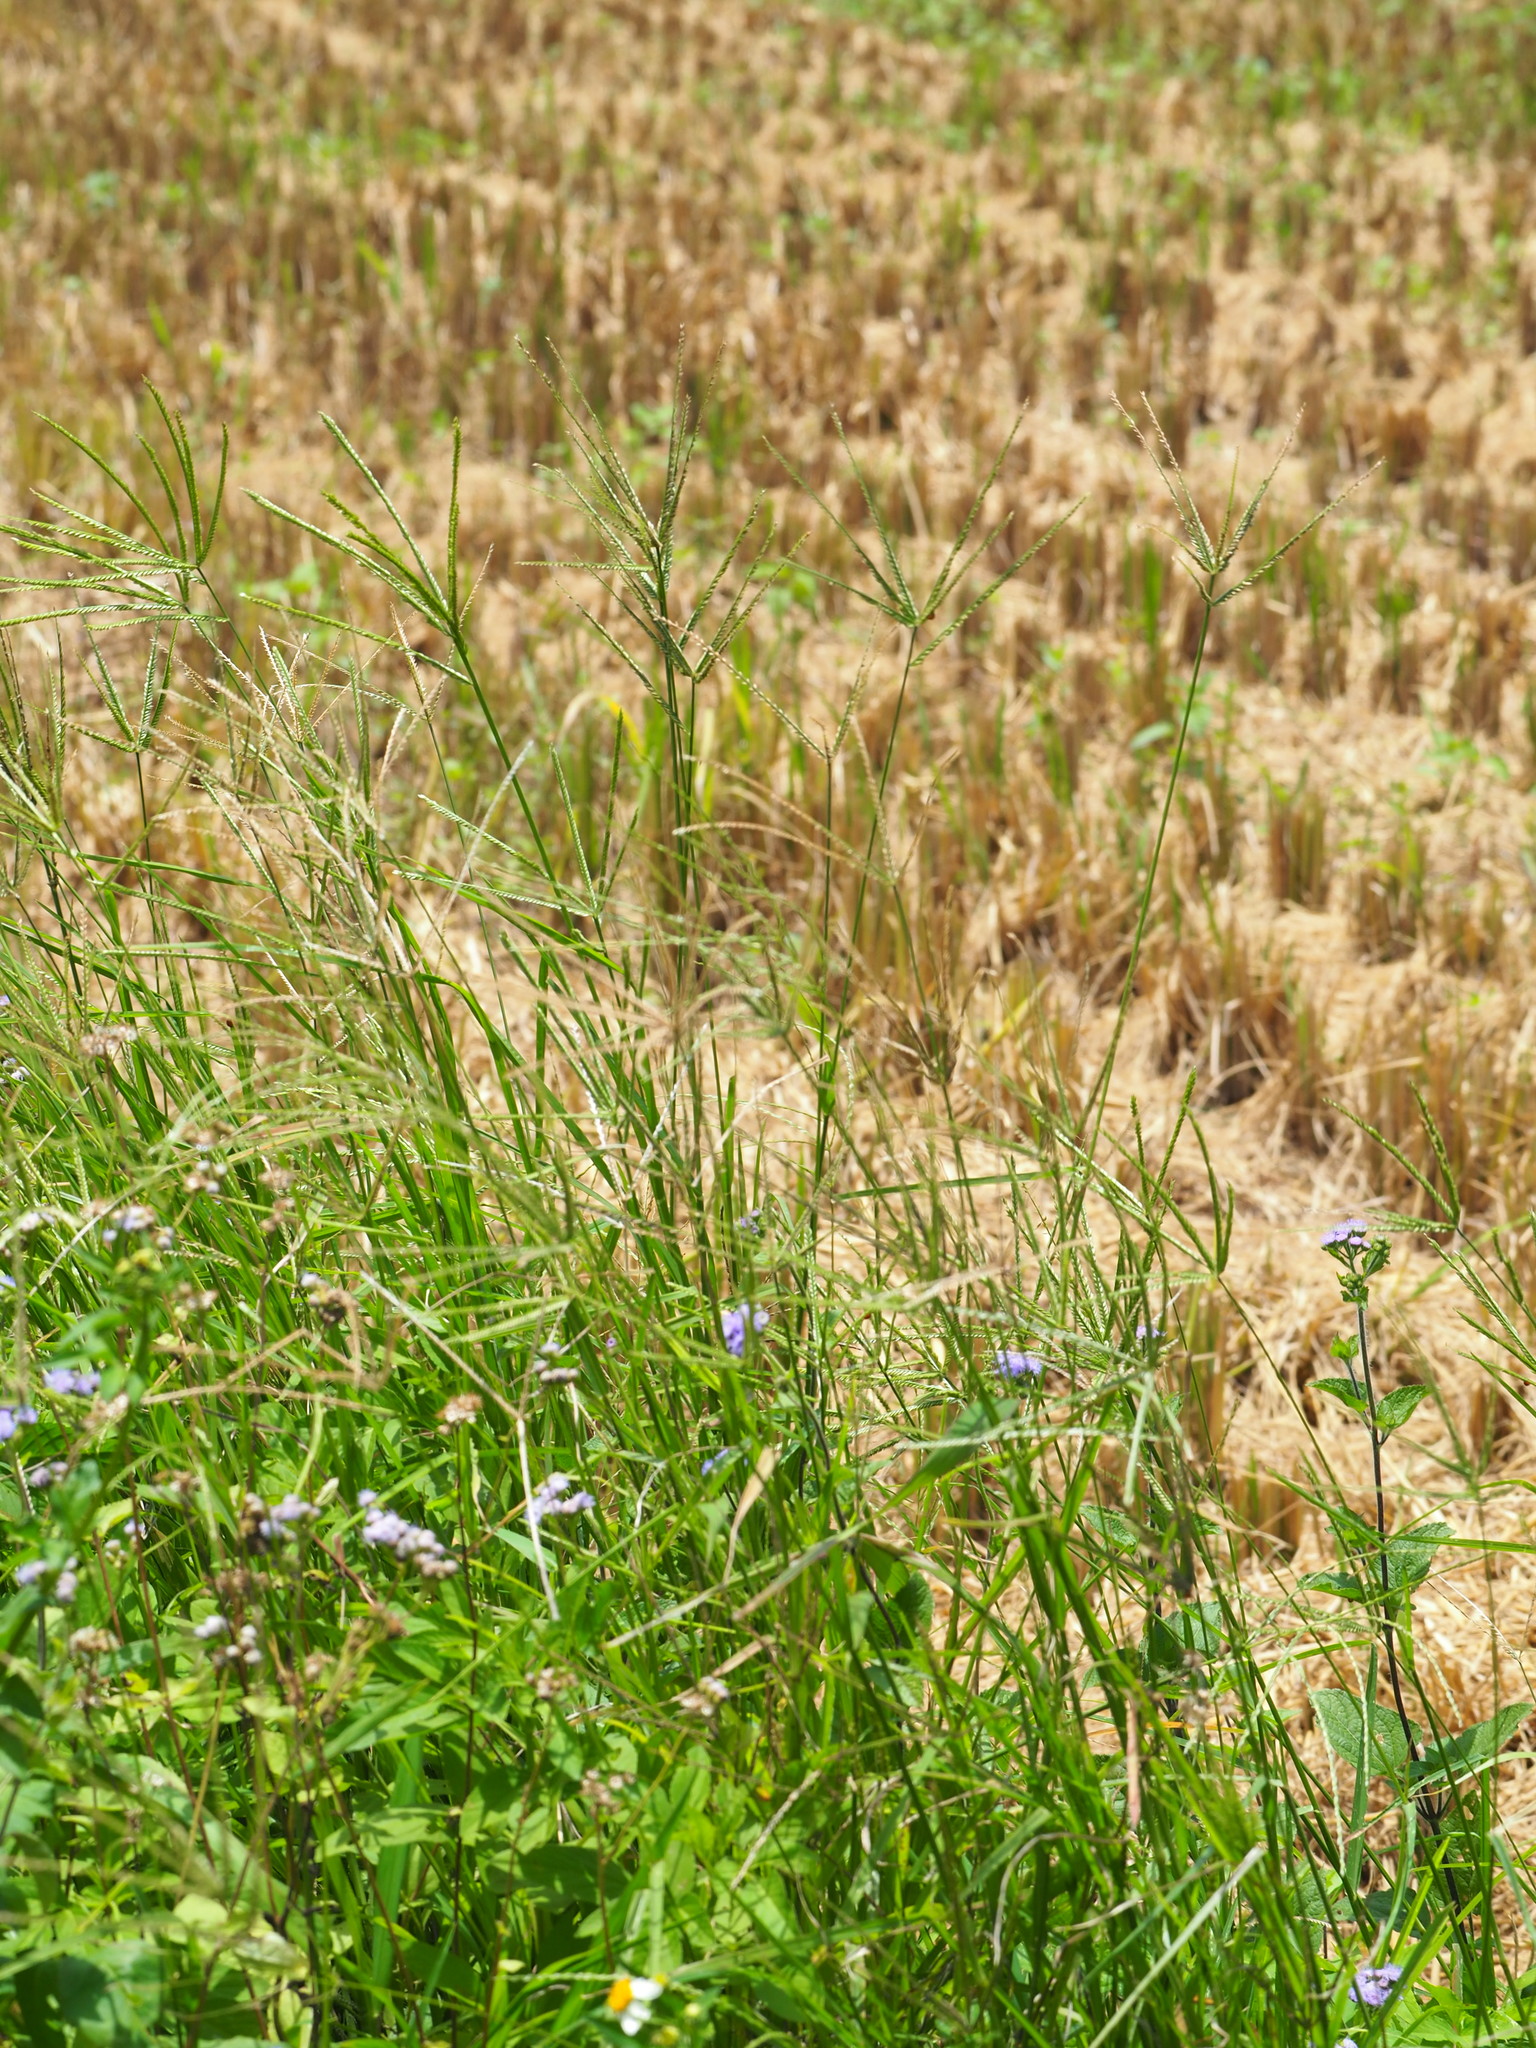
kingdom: Plantae
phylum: Tracheophyta
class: Liliopsida
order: Poales
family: Poaceae
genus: Eleusine
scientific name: Eleusine indica
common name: Yard-grass
